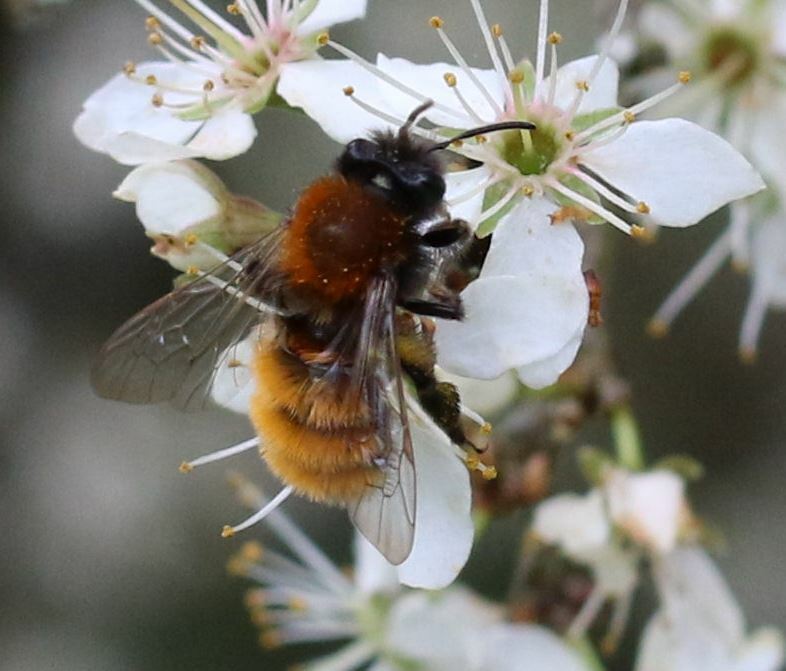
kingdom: Animalia
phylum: Arthropoda
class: Insecta
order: Hymenoptera
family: Andrenidae
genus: Andrena
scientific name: Andrena fulva
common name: Tawny mining bee
